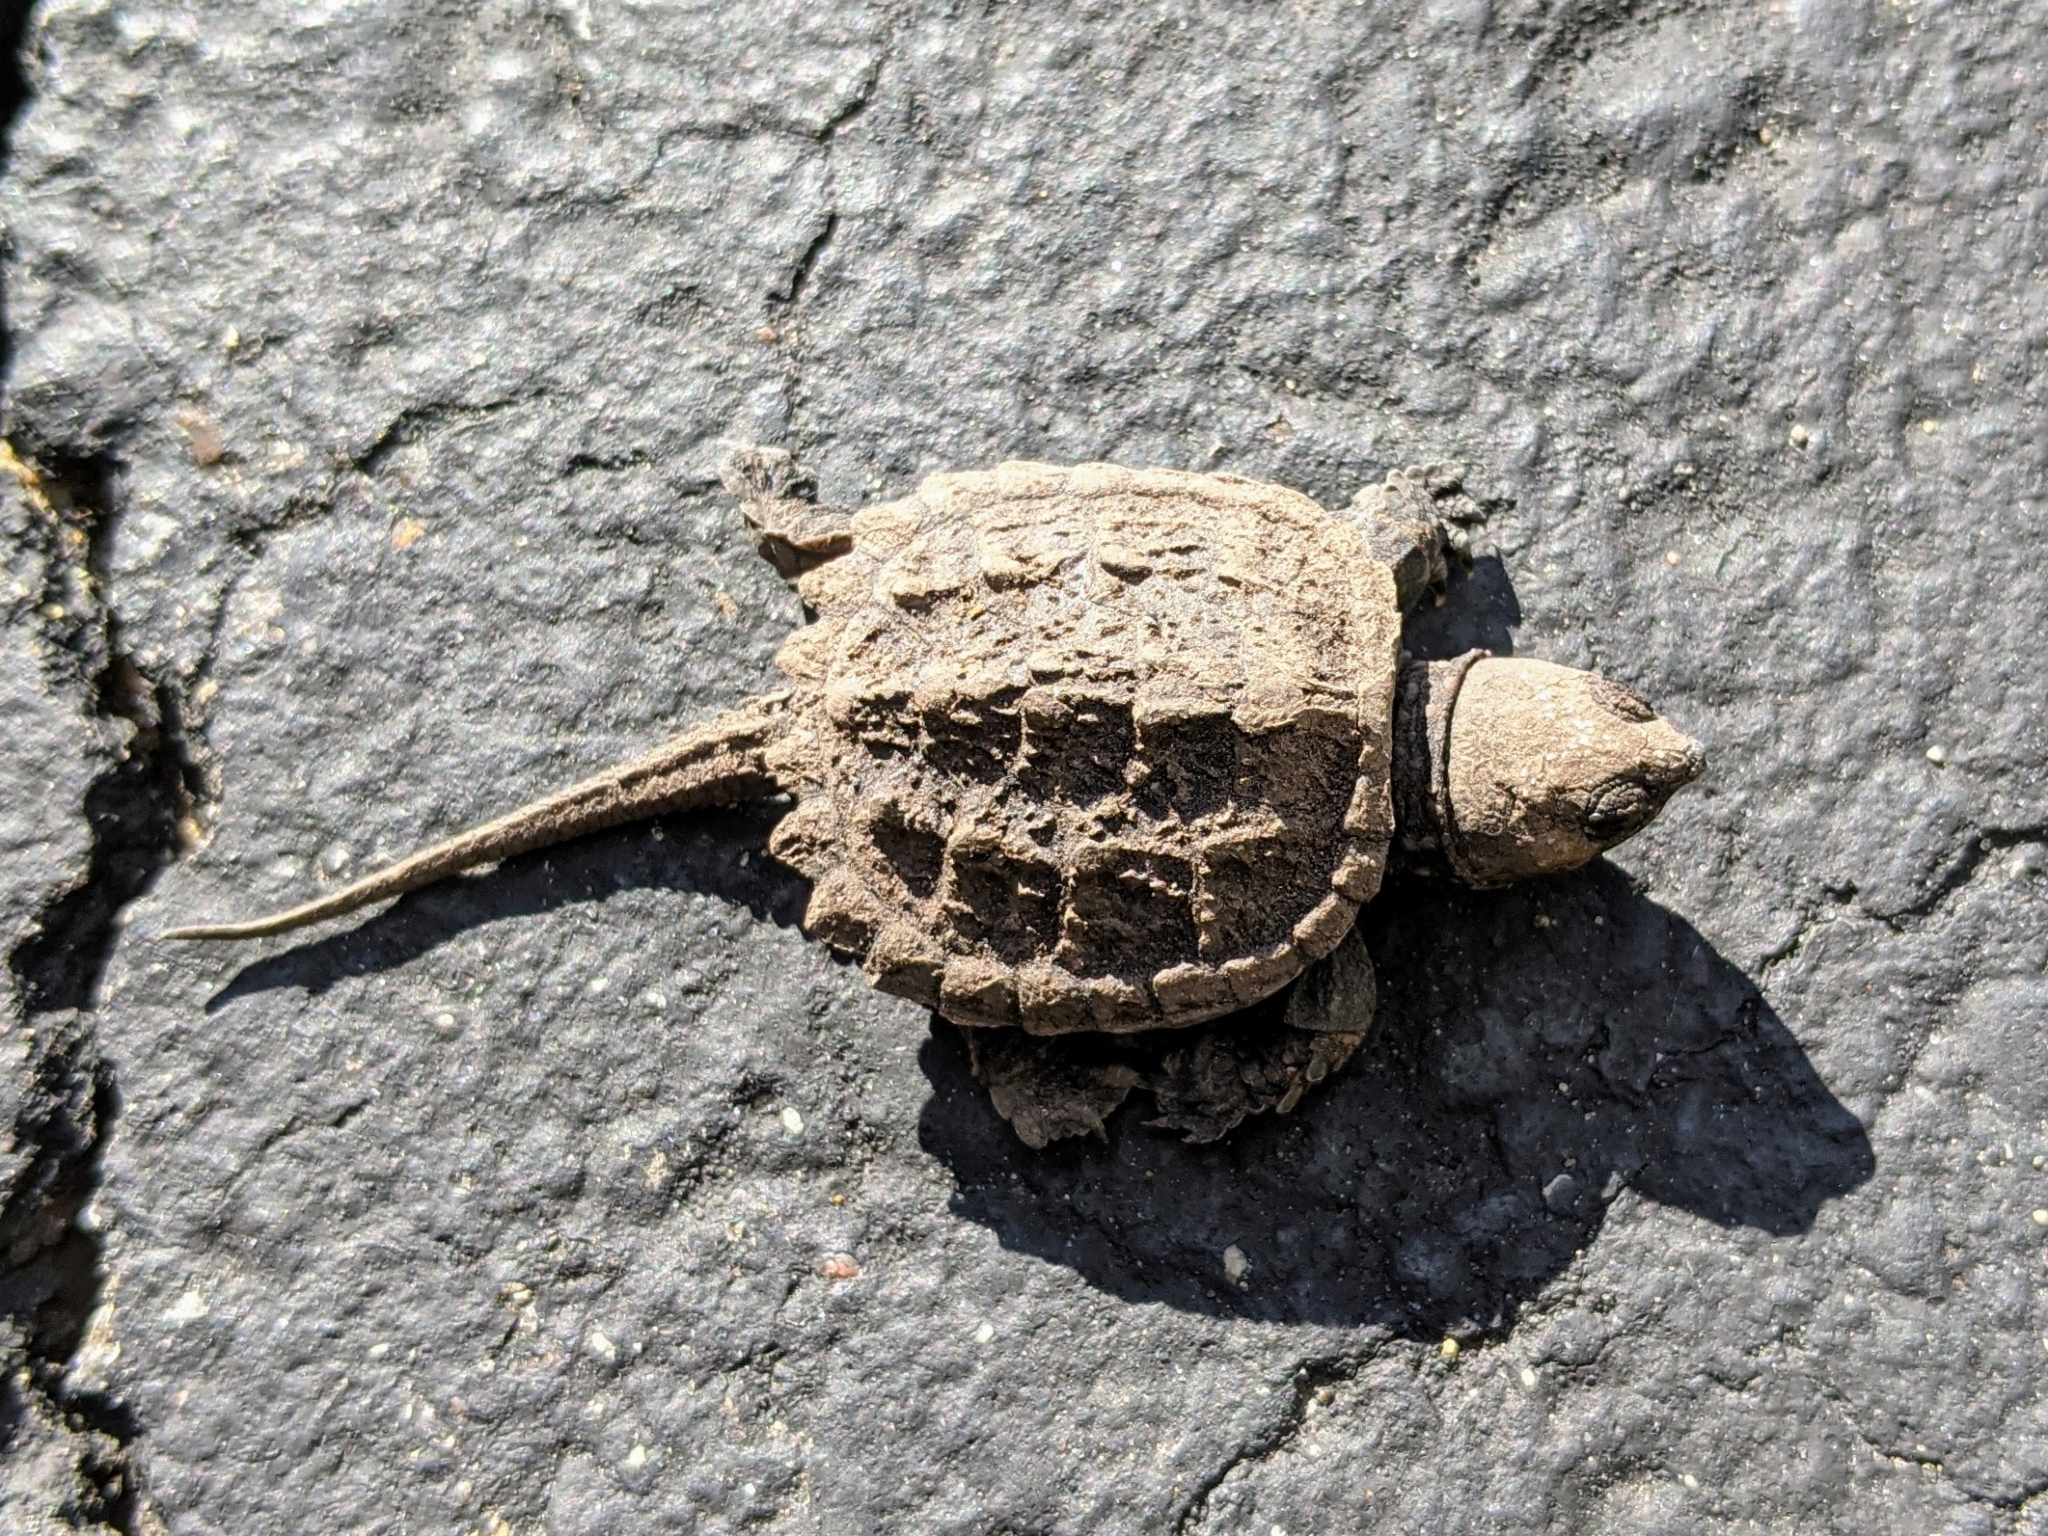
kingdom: Animalia
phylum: Chordata
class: Testudines
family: Chelydridae
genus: Chelydra
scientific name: Chelydra serpentina
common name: Common snapping turtle
